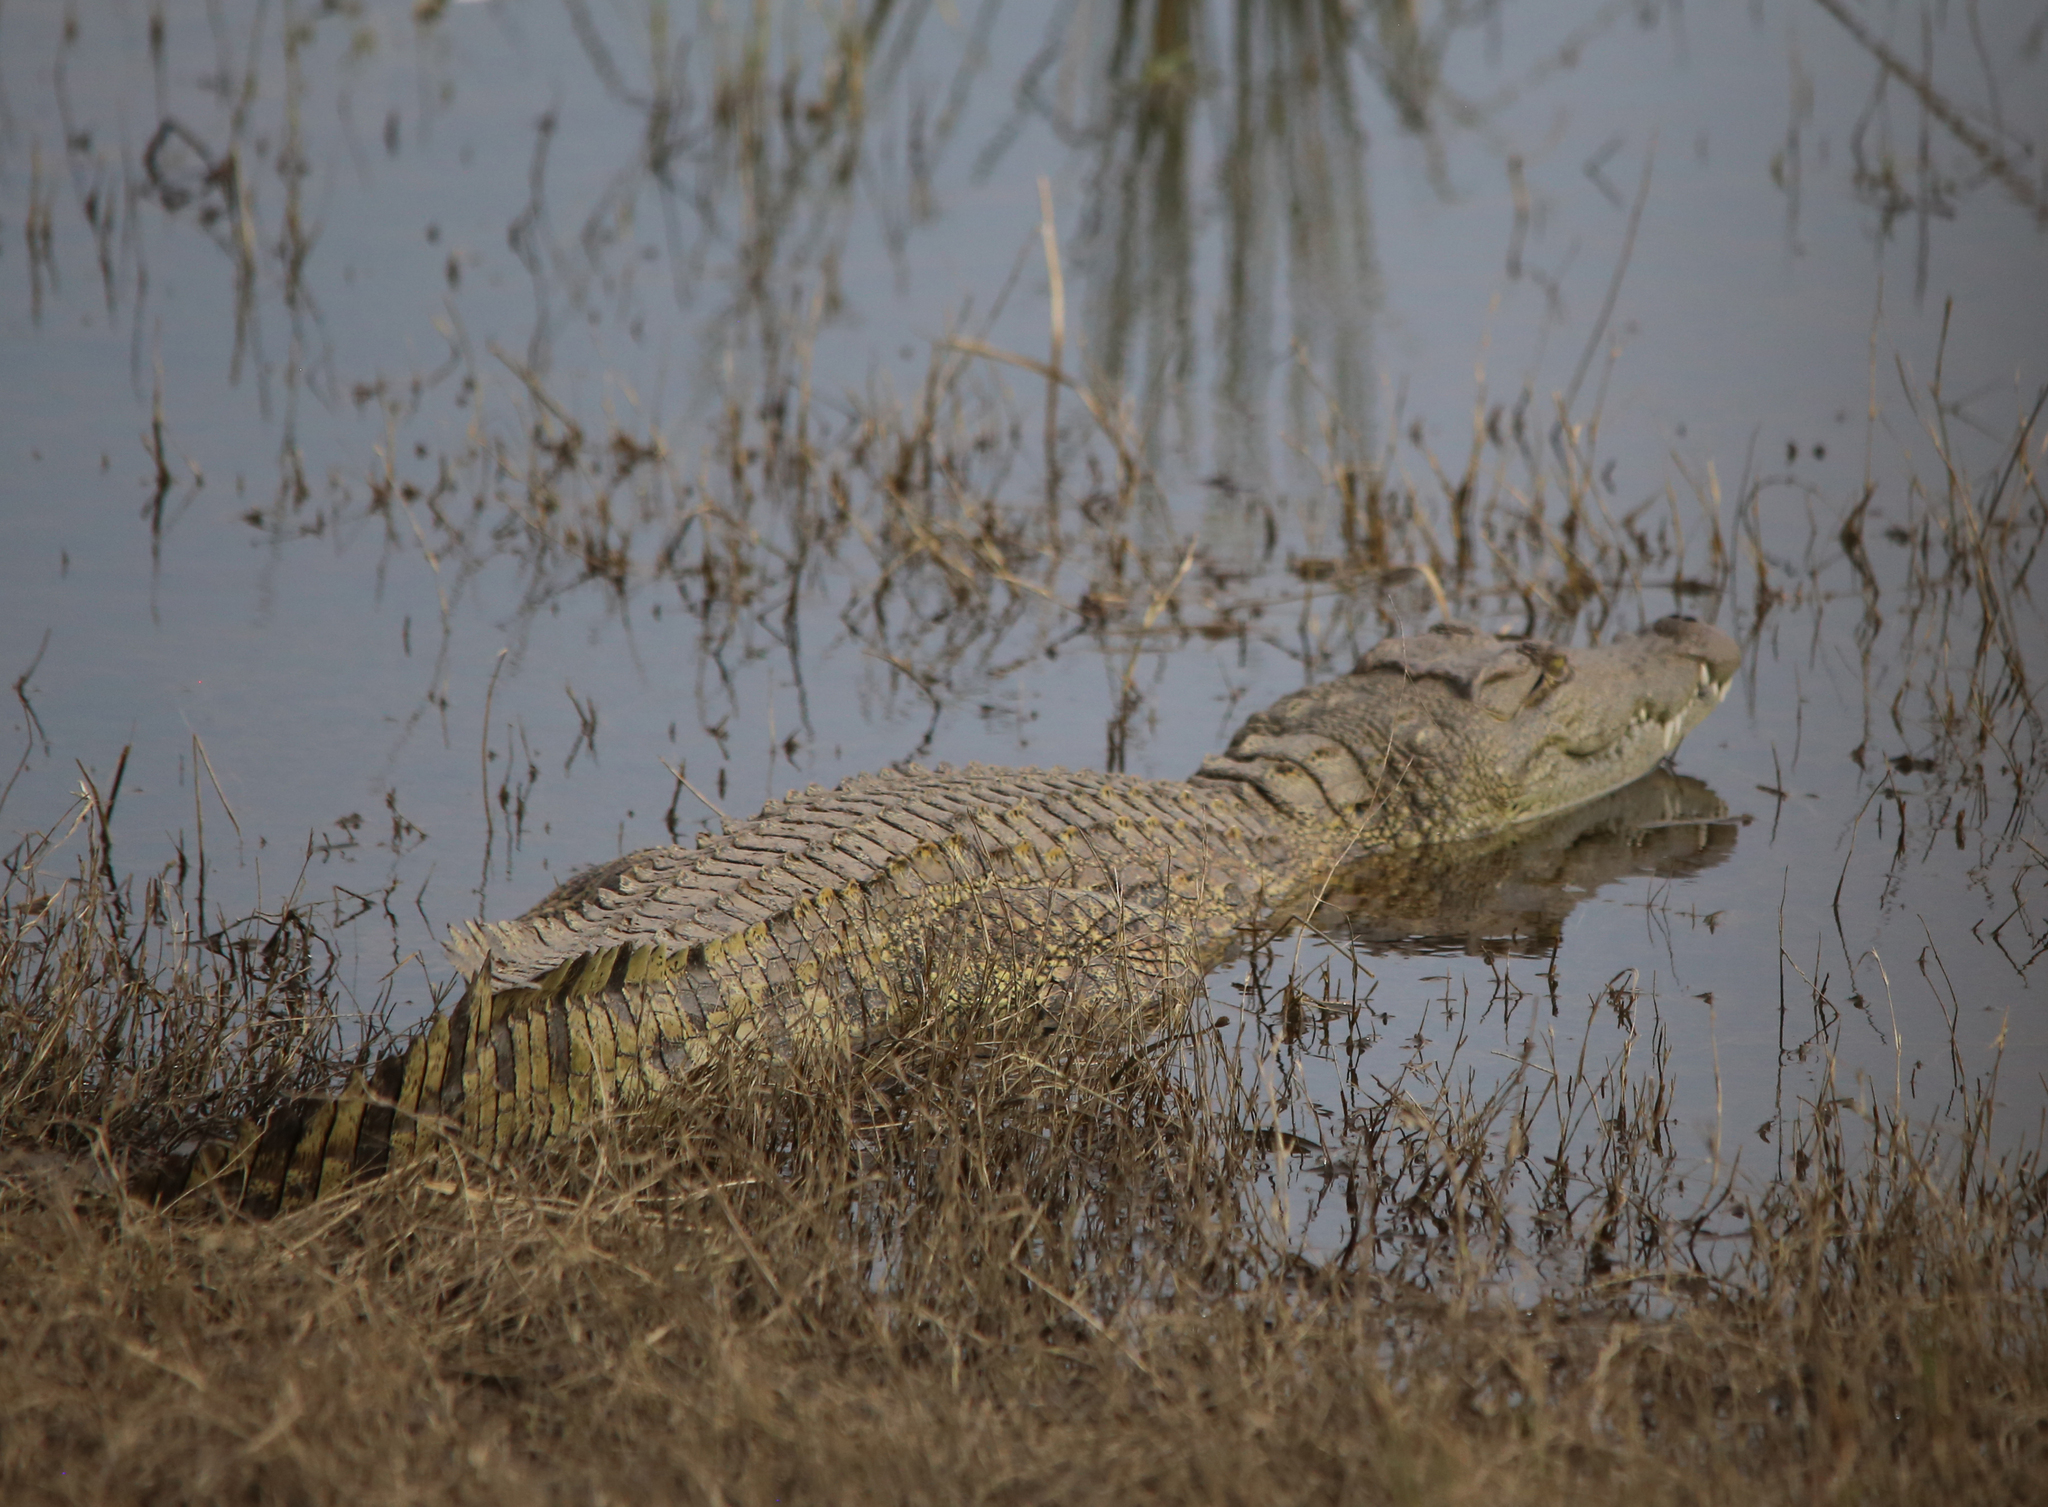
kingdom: Animalia
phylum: Chordata
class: Crocodylia
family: Crocodylidae
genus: Crocodylus
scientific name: Crocodylus niloticus
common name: Nile crocodile
